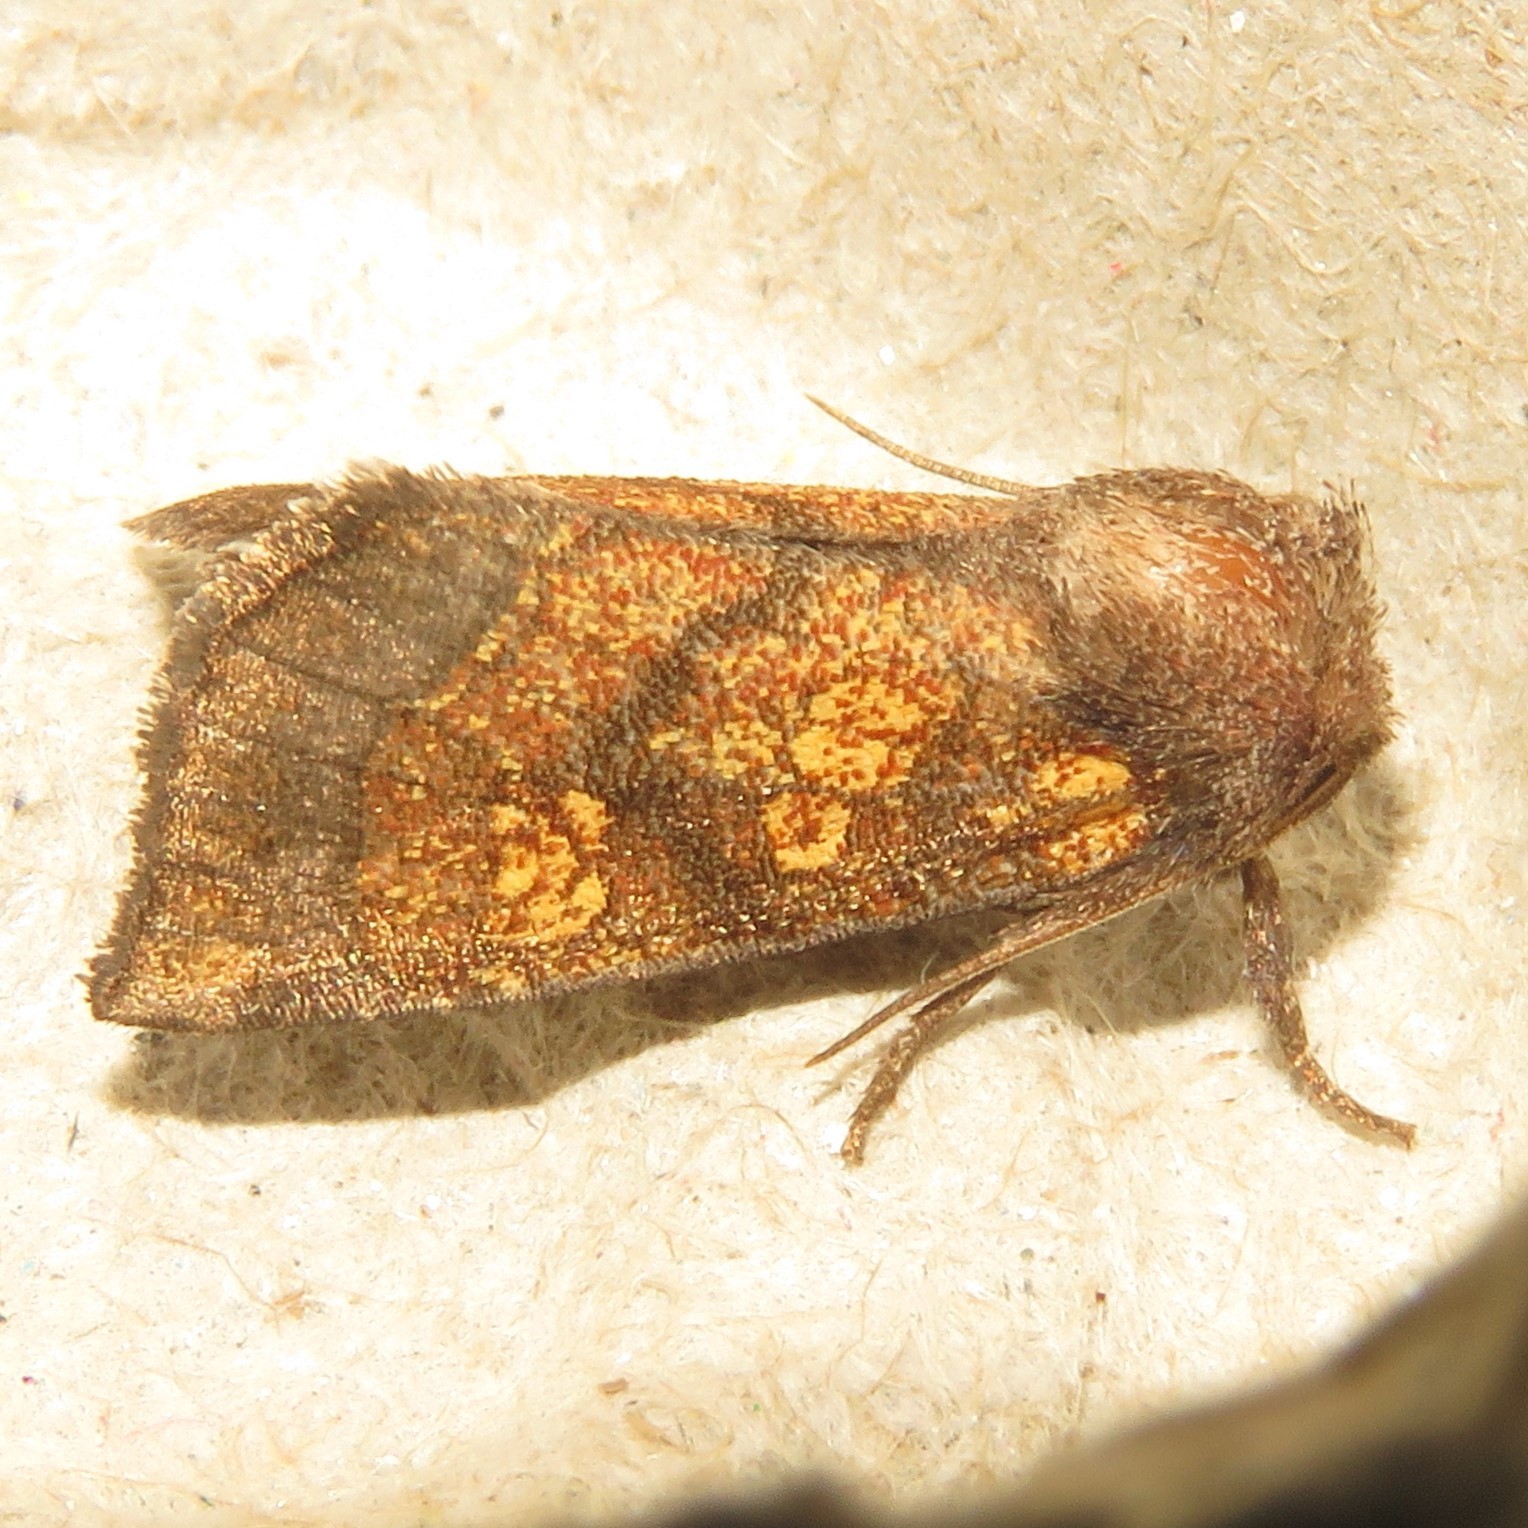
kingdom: Animalia
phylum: Arthropoda
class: Insecta
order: Lepidoptera
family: Noctuidae
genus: Papaipema
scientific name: Papaipema impecuniosa
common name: Aster borer moth
